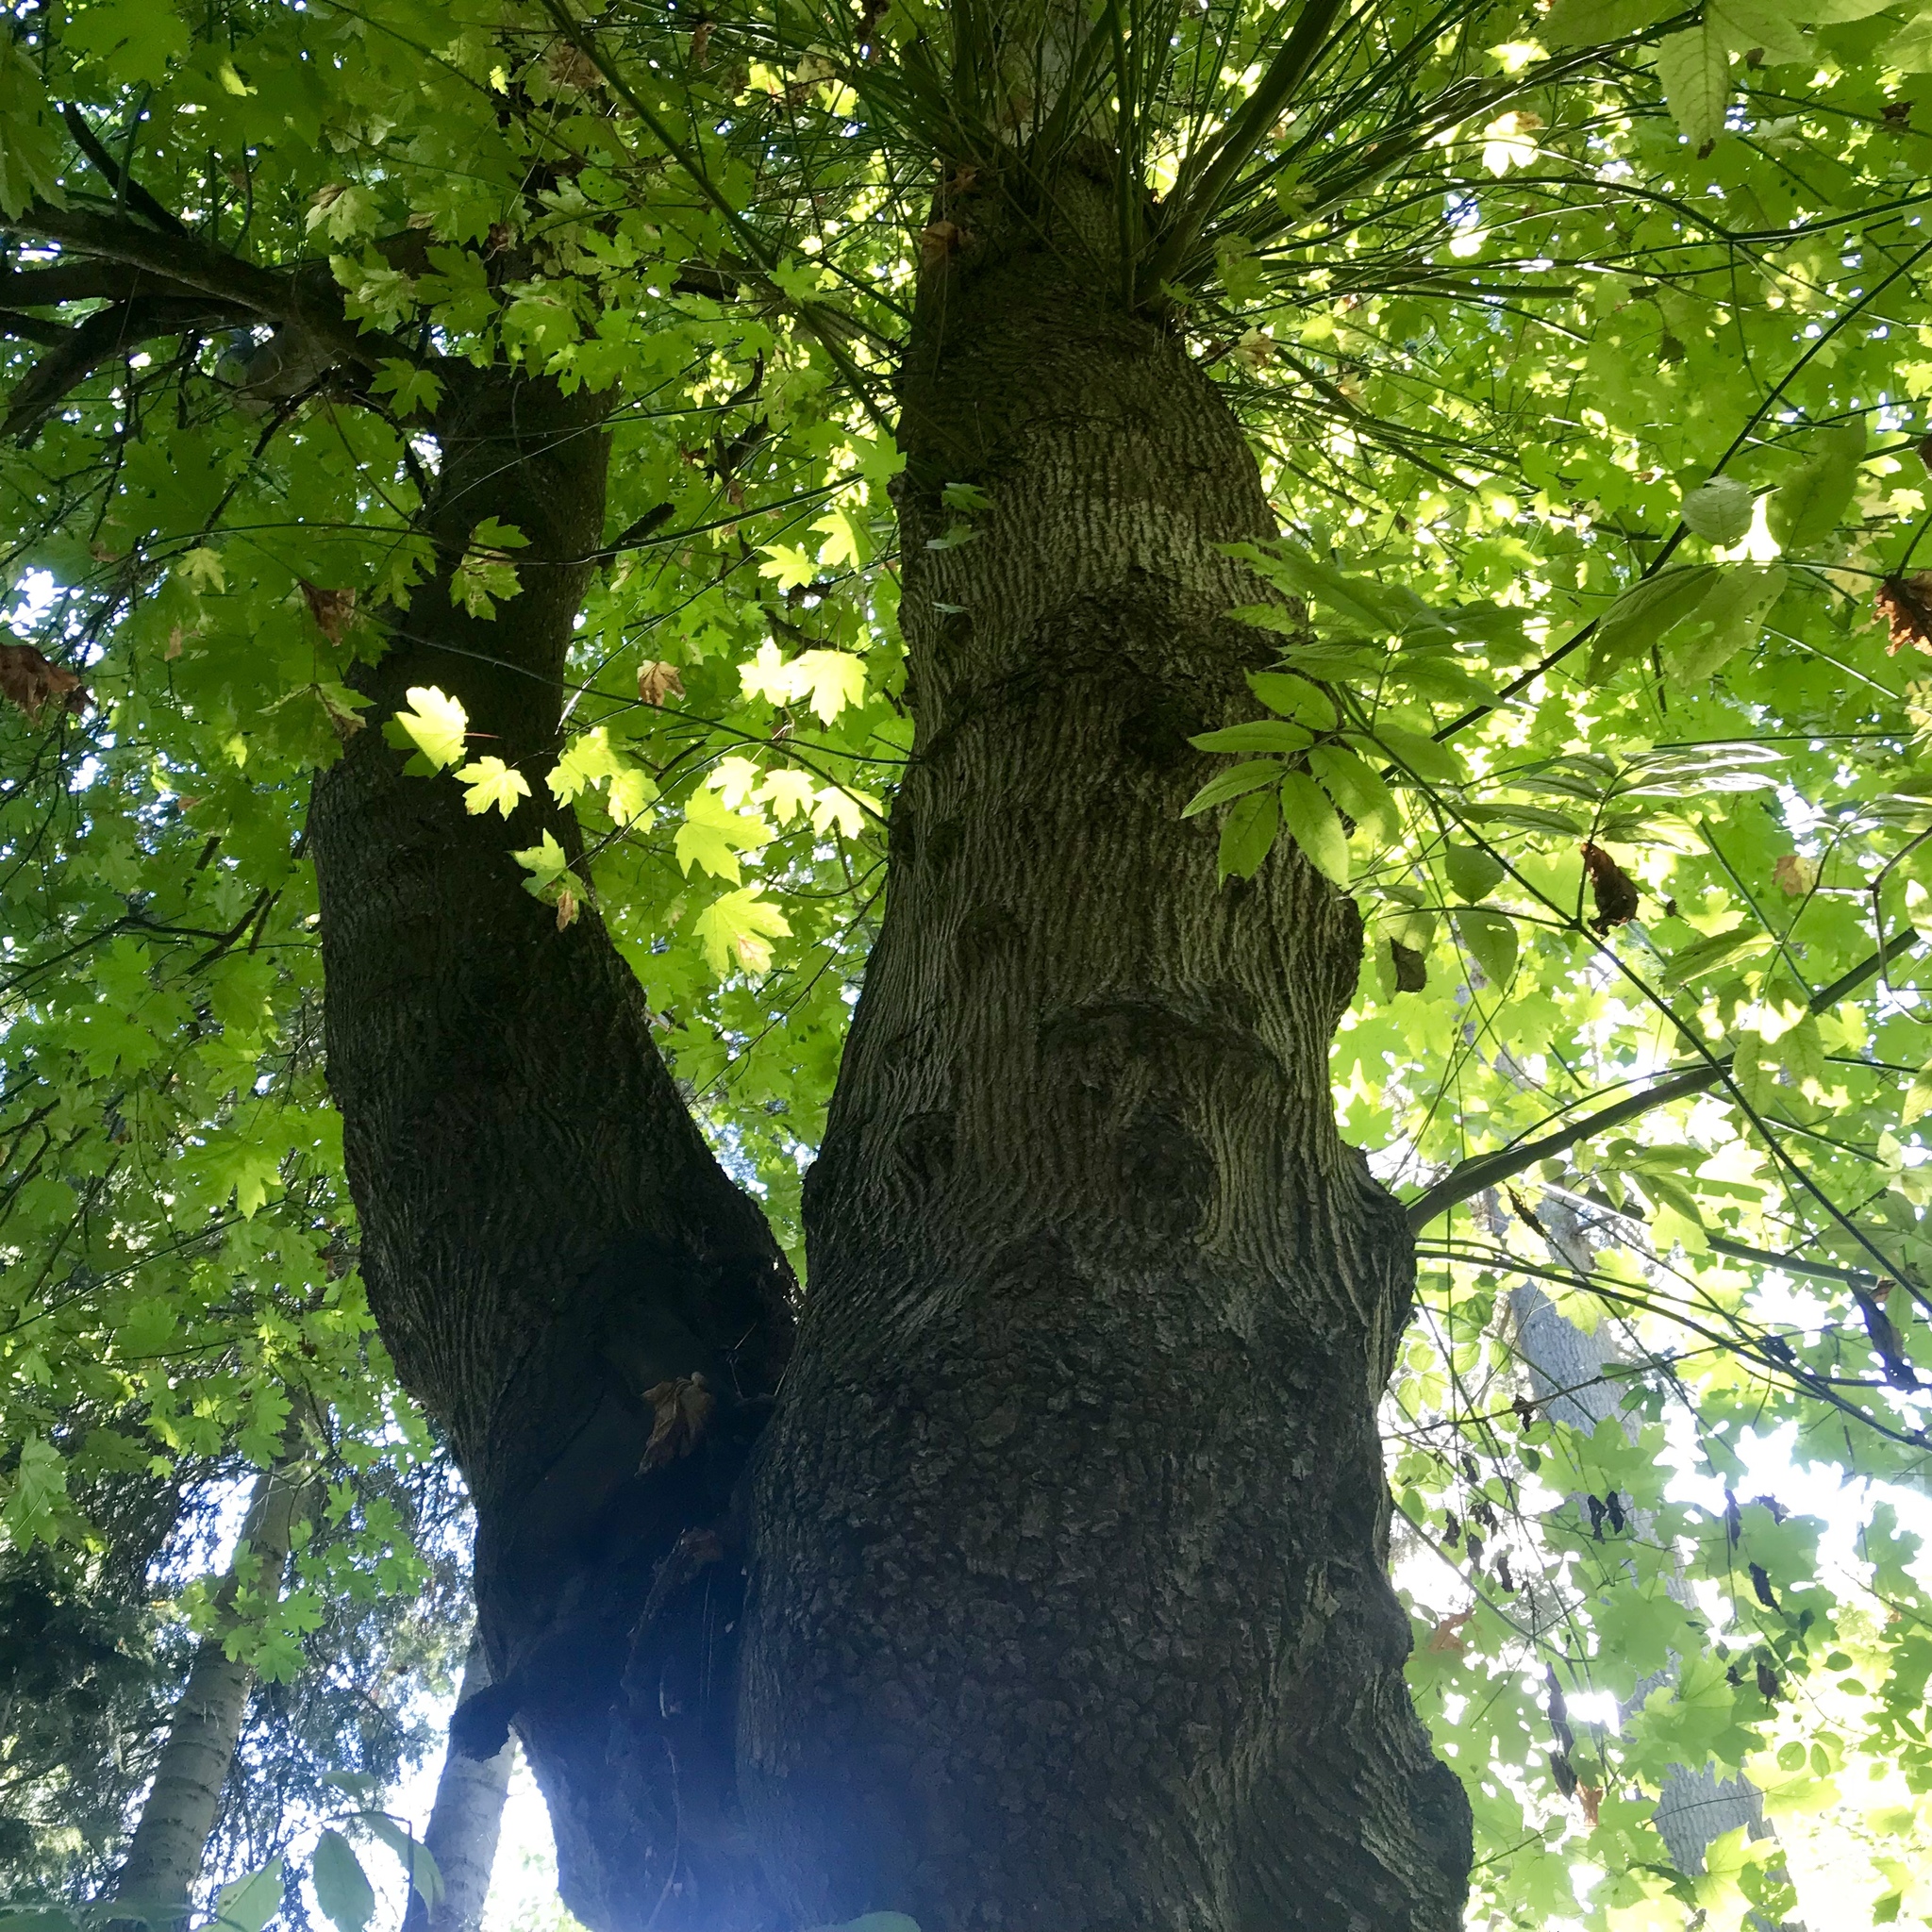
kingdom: Plantae
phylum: Tracheophyta
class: Magnoliopsida
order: Sapindales
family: Sapindaceae
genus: Acer
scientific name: Acer macrophyllum
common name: Oregon maple
